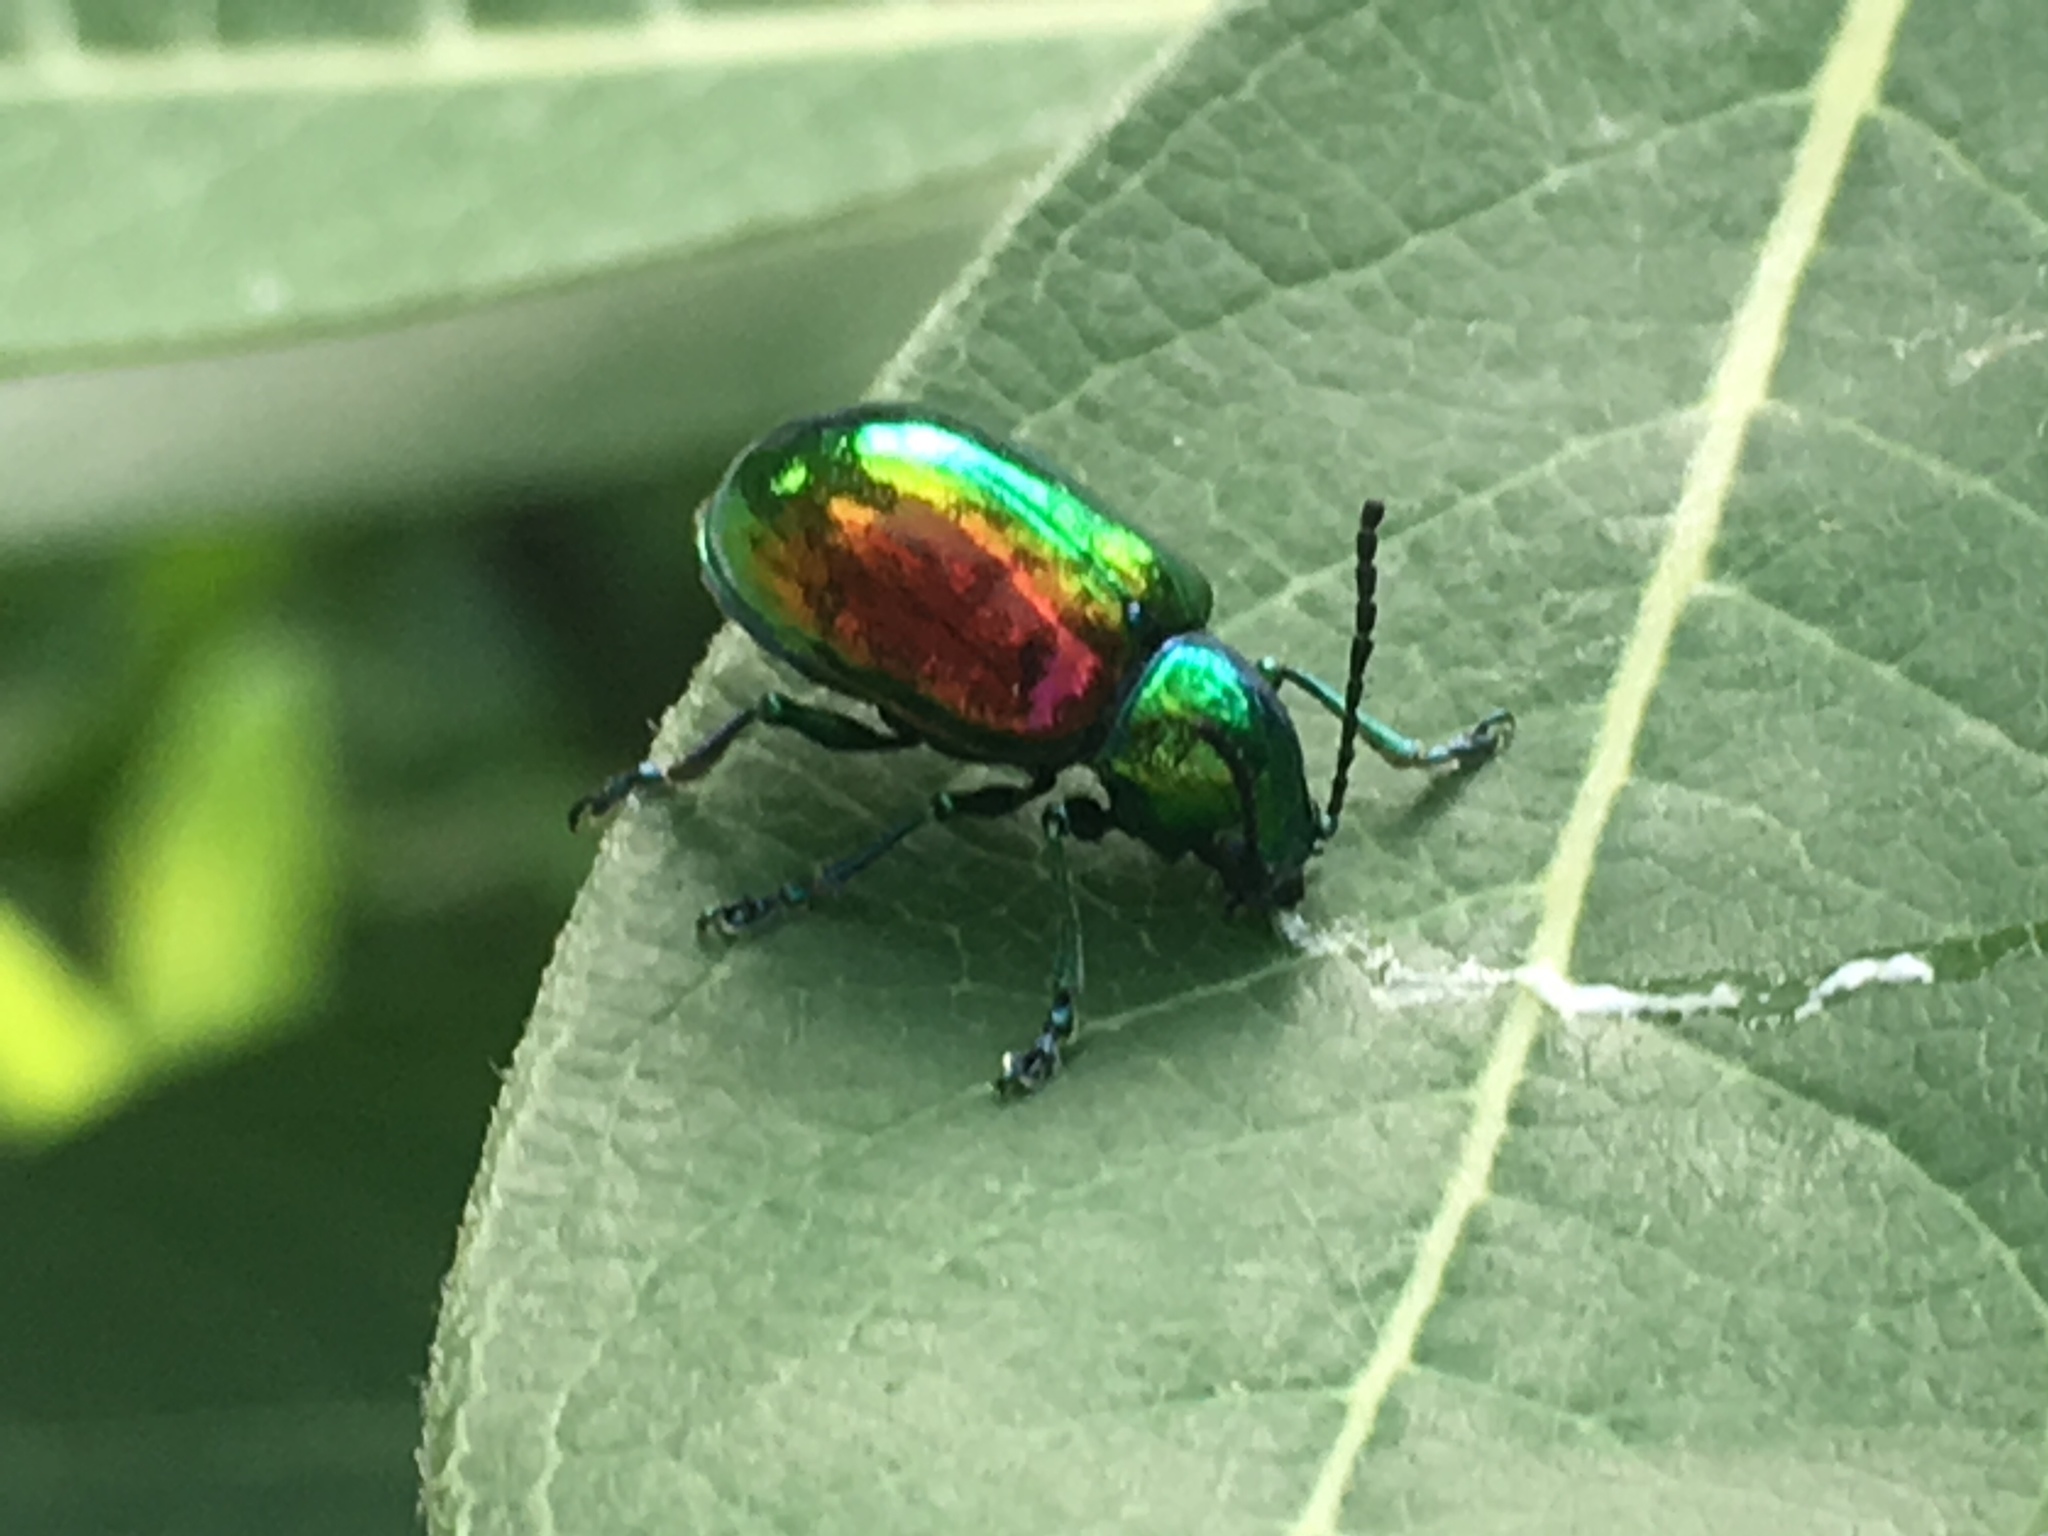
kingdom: Animalia
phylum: Arthropoda
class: Insecta
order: Coleoptera
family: Chrysomelidae
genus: Chrysochus
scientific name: Chrysochus auratus
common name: Dogbane leaf beetle
